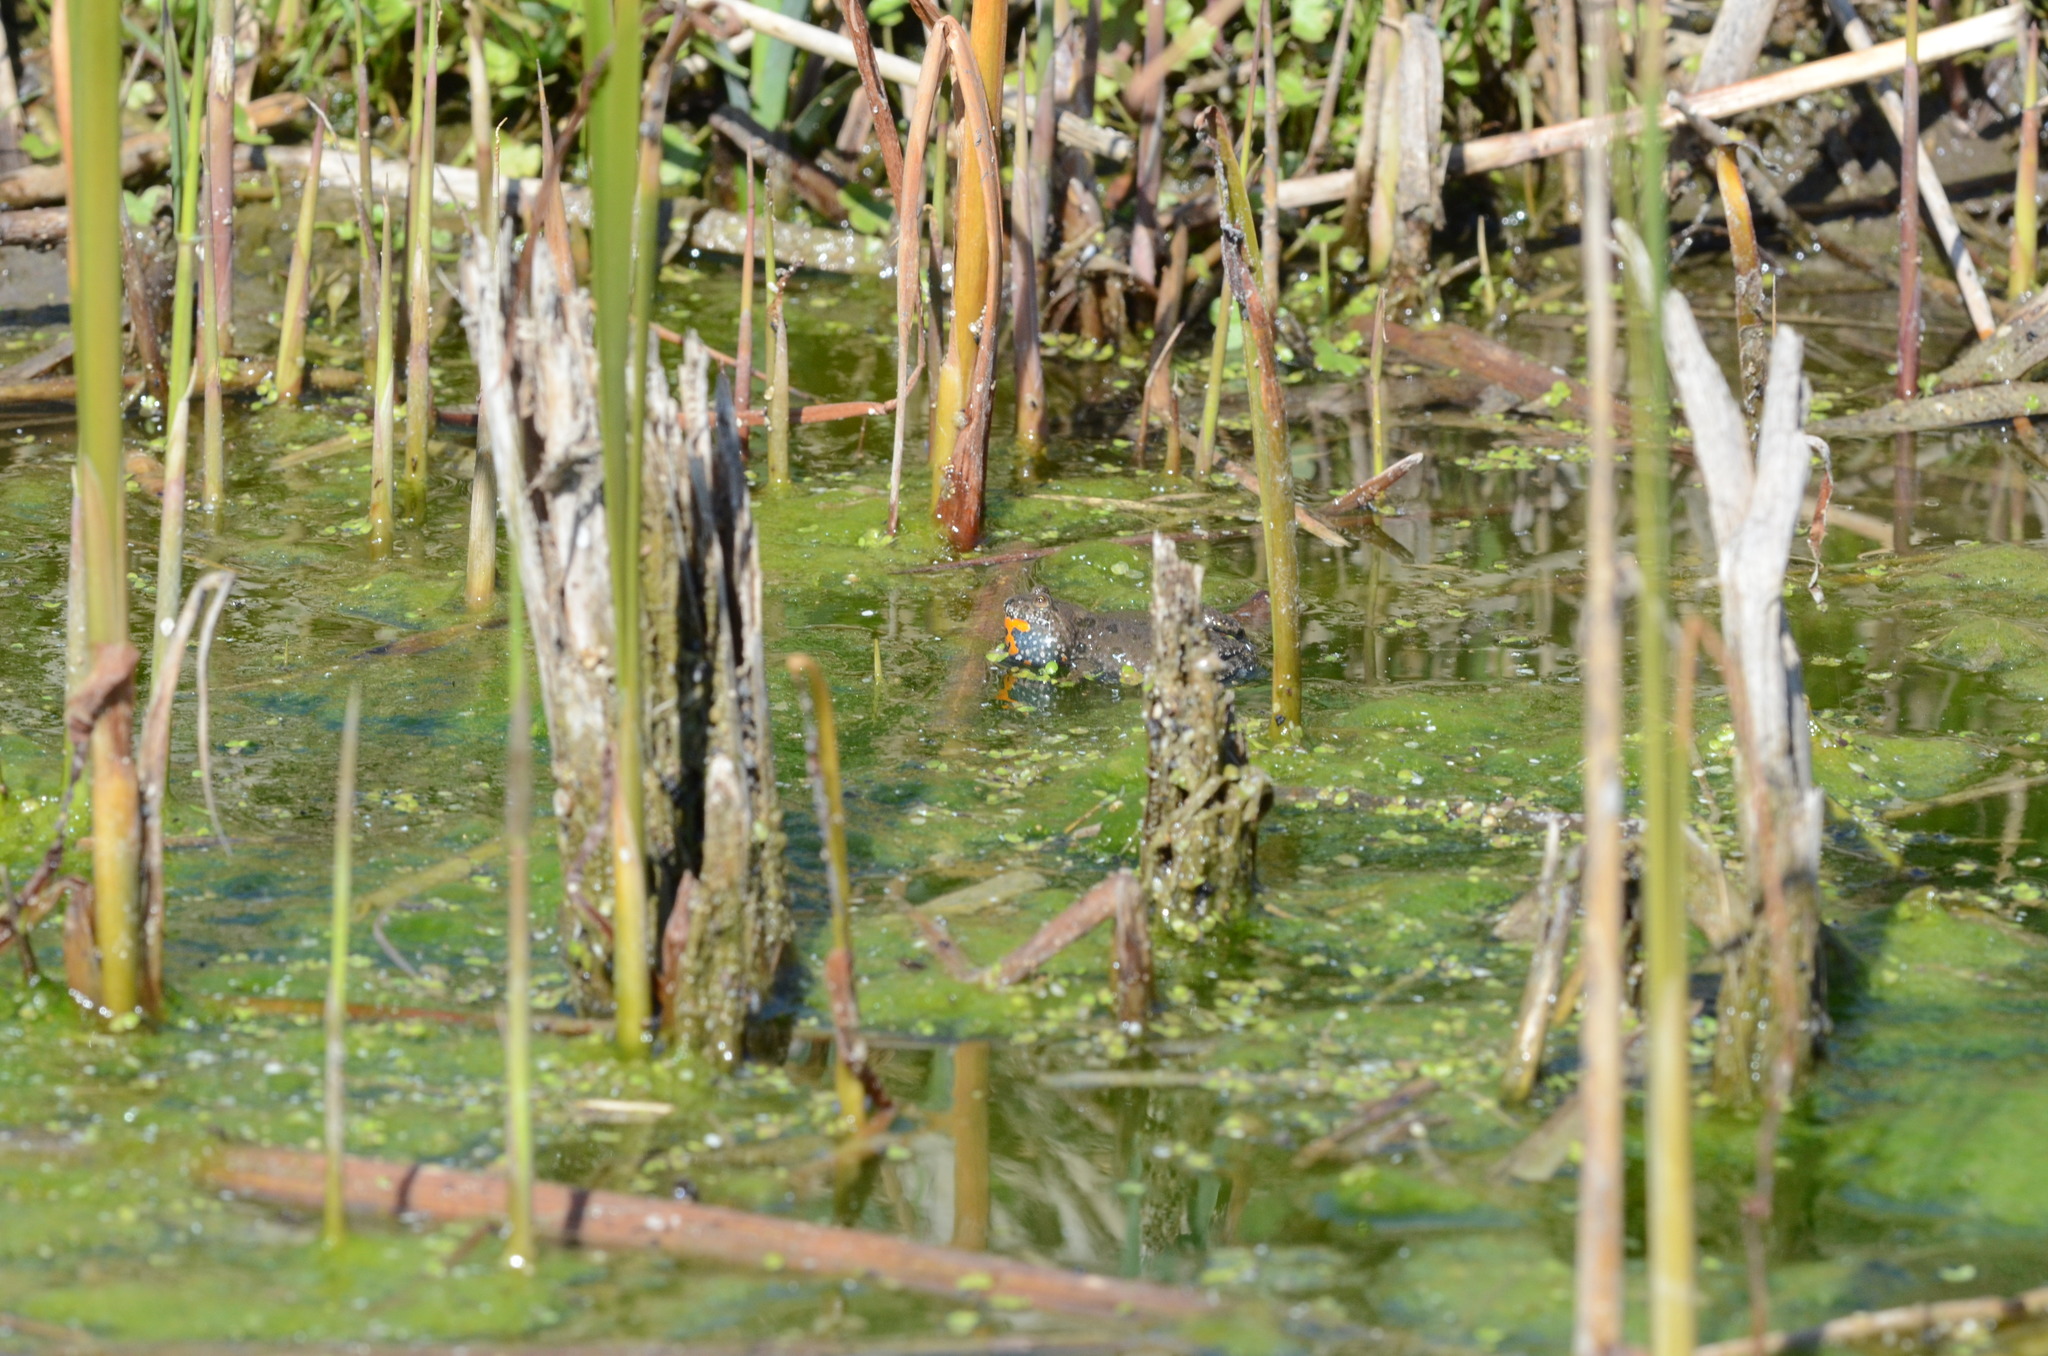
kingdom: Animalia
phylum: Chordata
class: Amphibia
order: Anura
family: Bombinatoridae
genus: Bombina
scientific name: Bombina bombina
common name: Fire-bellied toad
